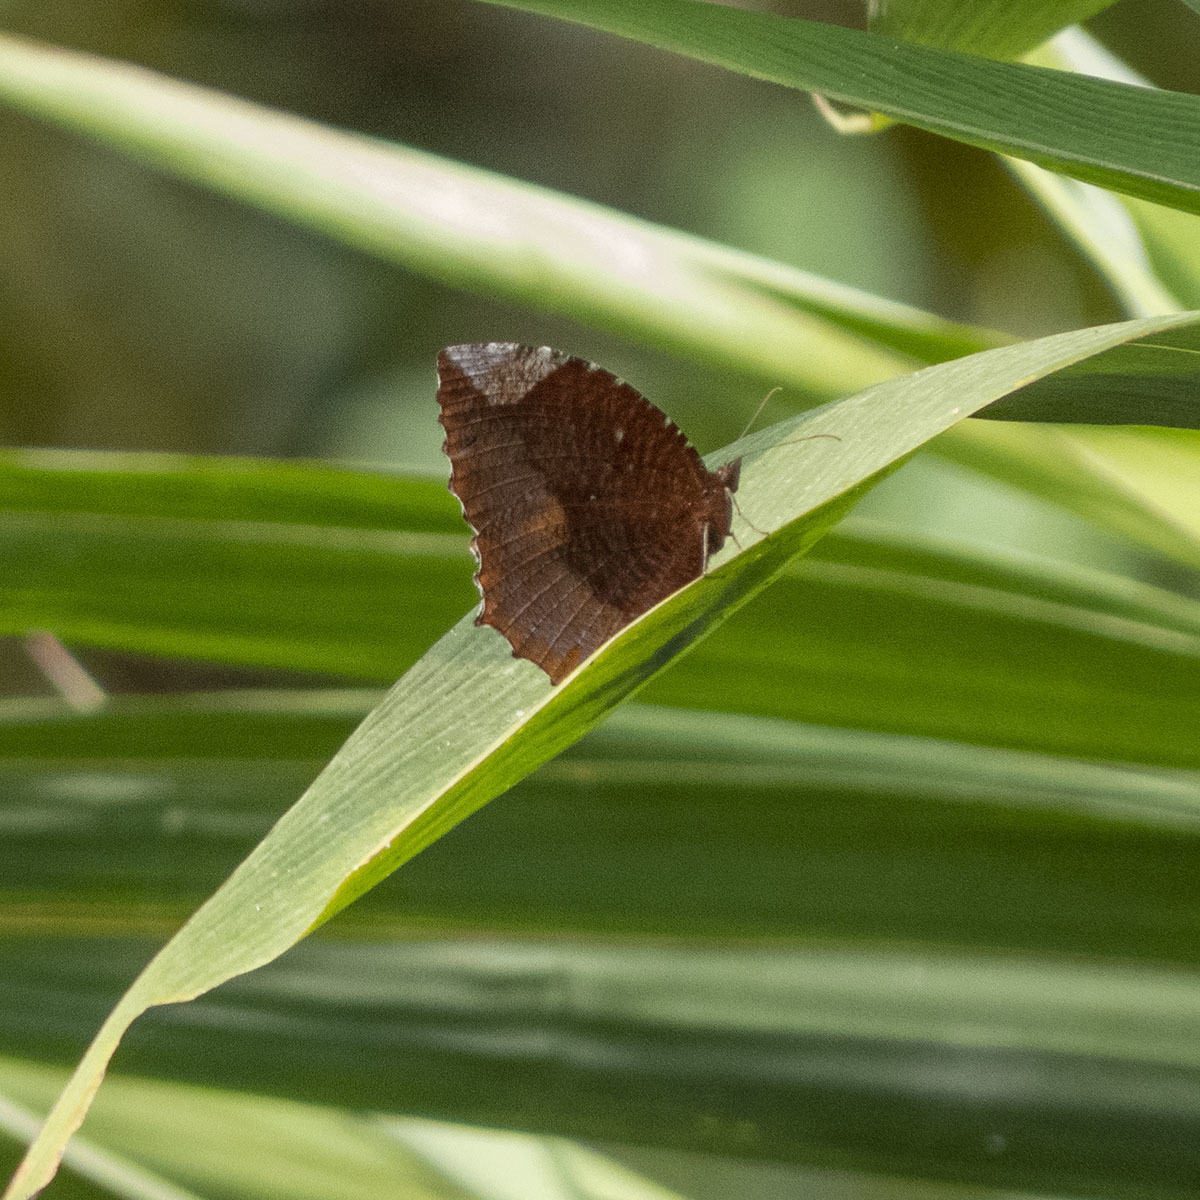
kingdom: Animalia
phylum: Arthropoda
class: Insecta
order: Lepidoptera
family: Nymphalidae
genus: Elymnias
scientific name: Elymnias hypermnestra
